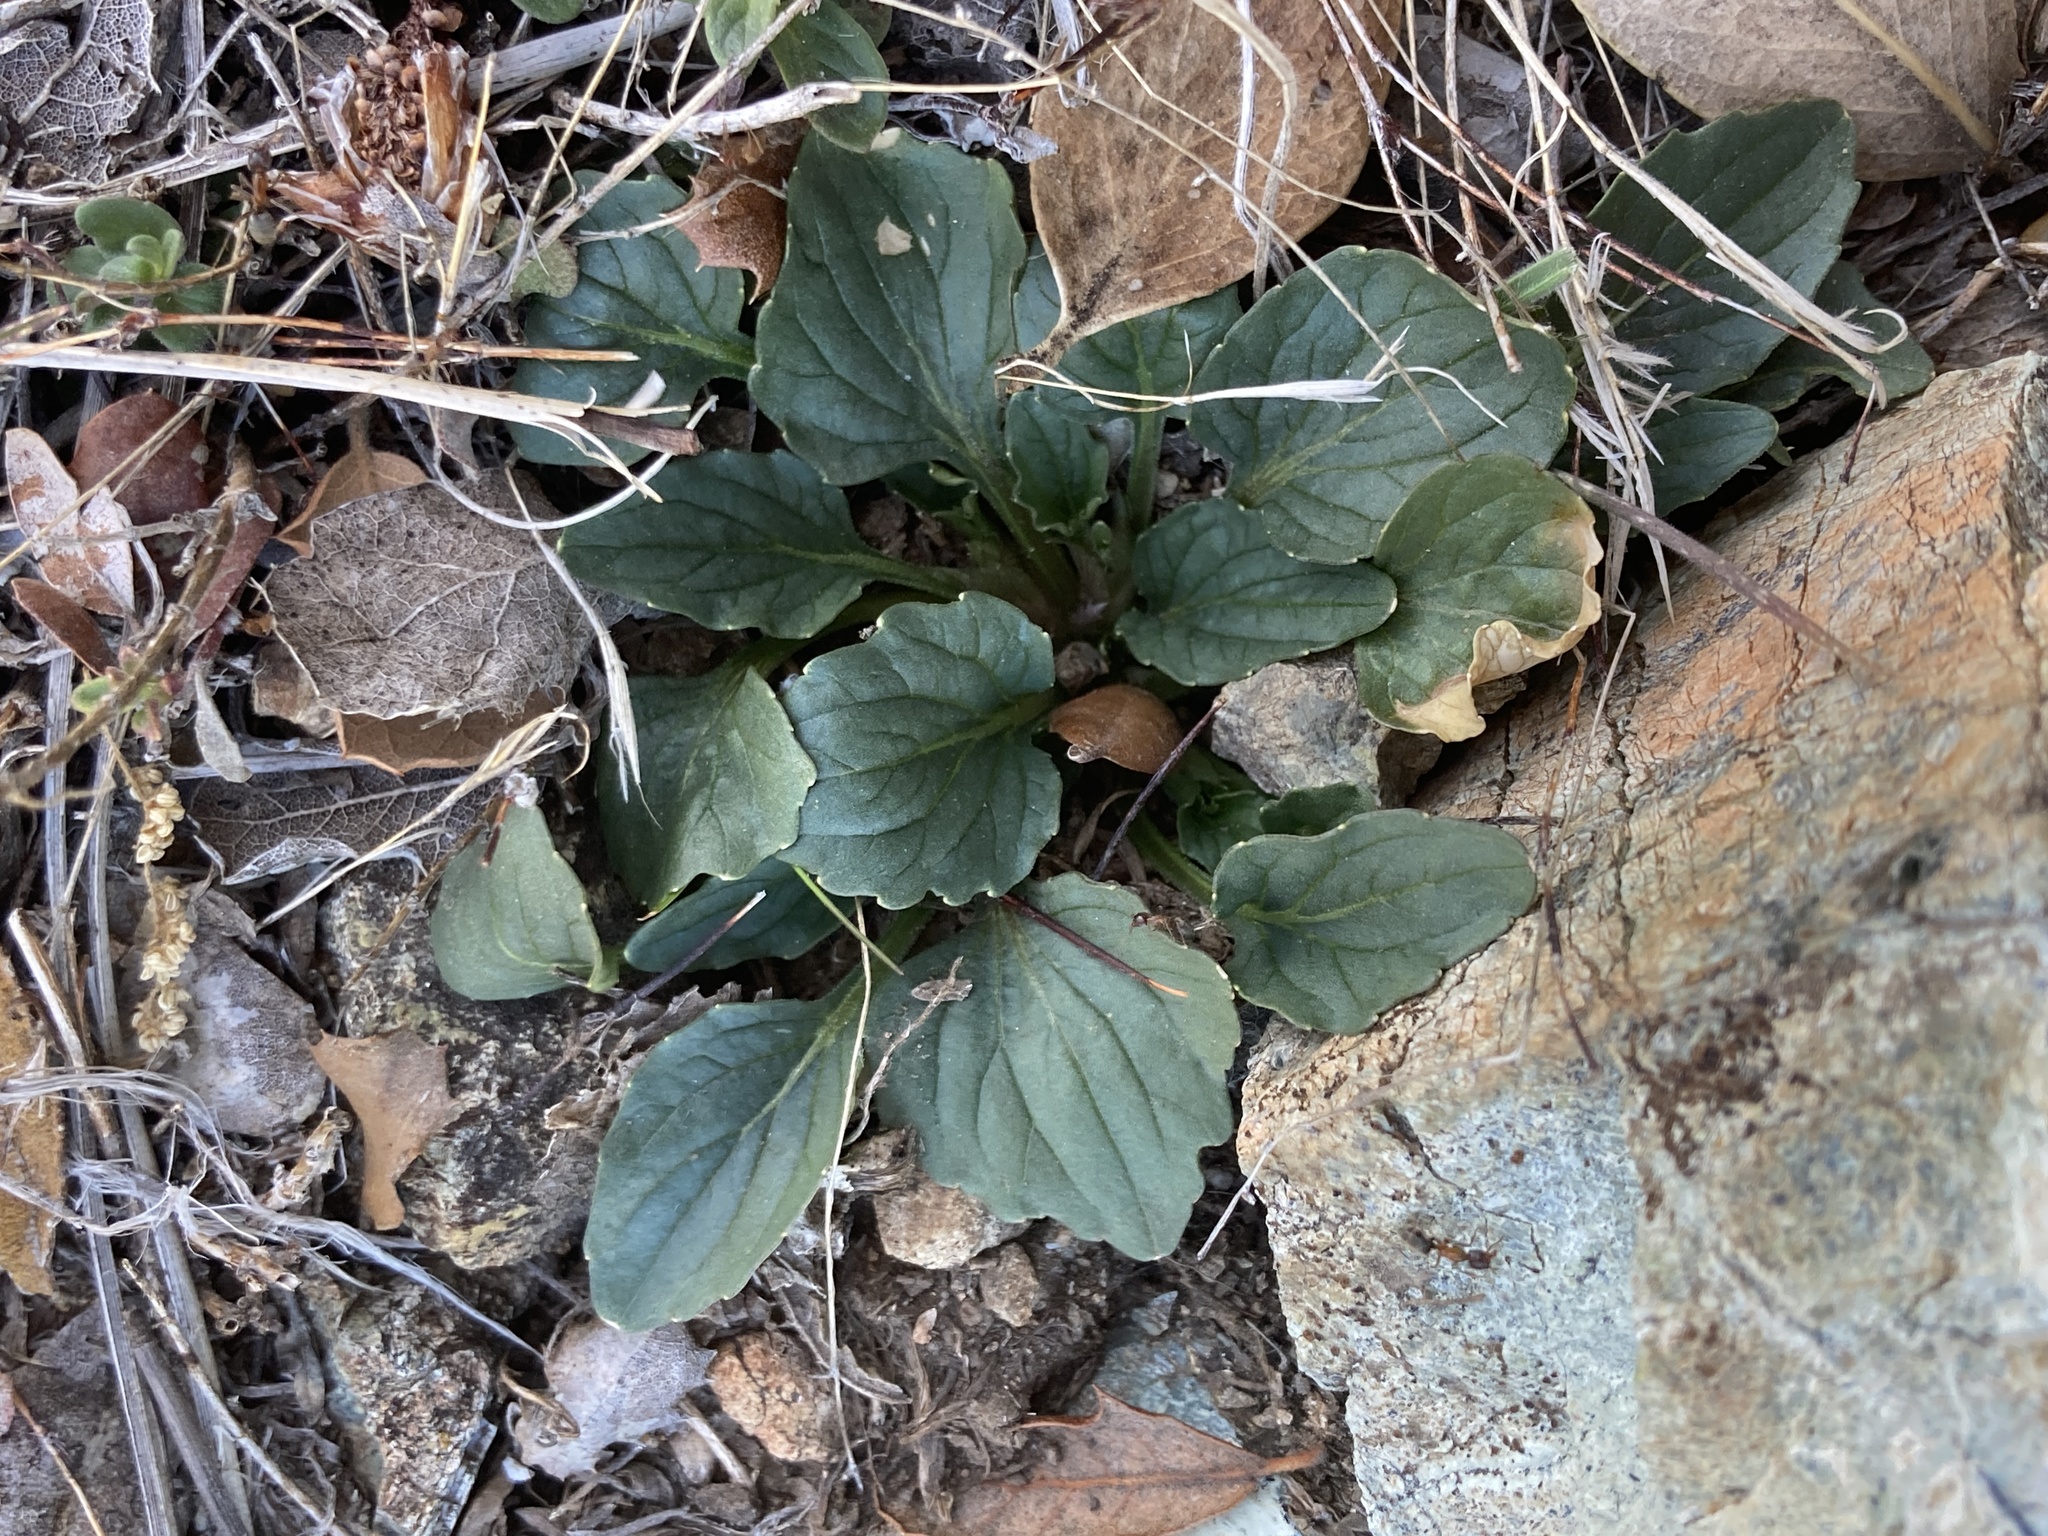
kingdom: Plantae
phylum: Tracheophyta
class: Magnoliopsida
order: Malpighiales
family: Violaceae
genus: Viola
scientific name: Viola purpurea
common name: Pine violet
